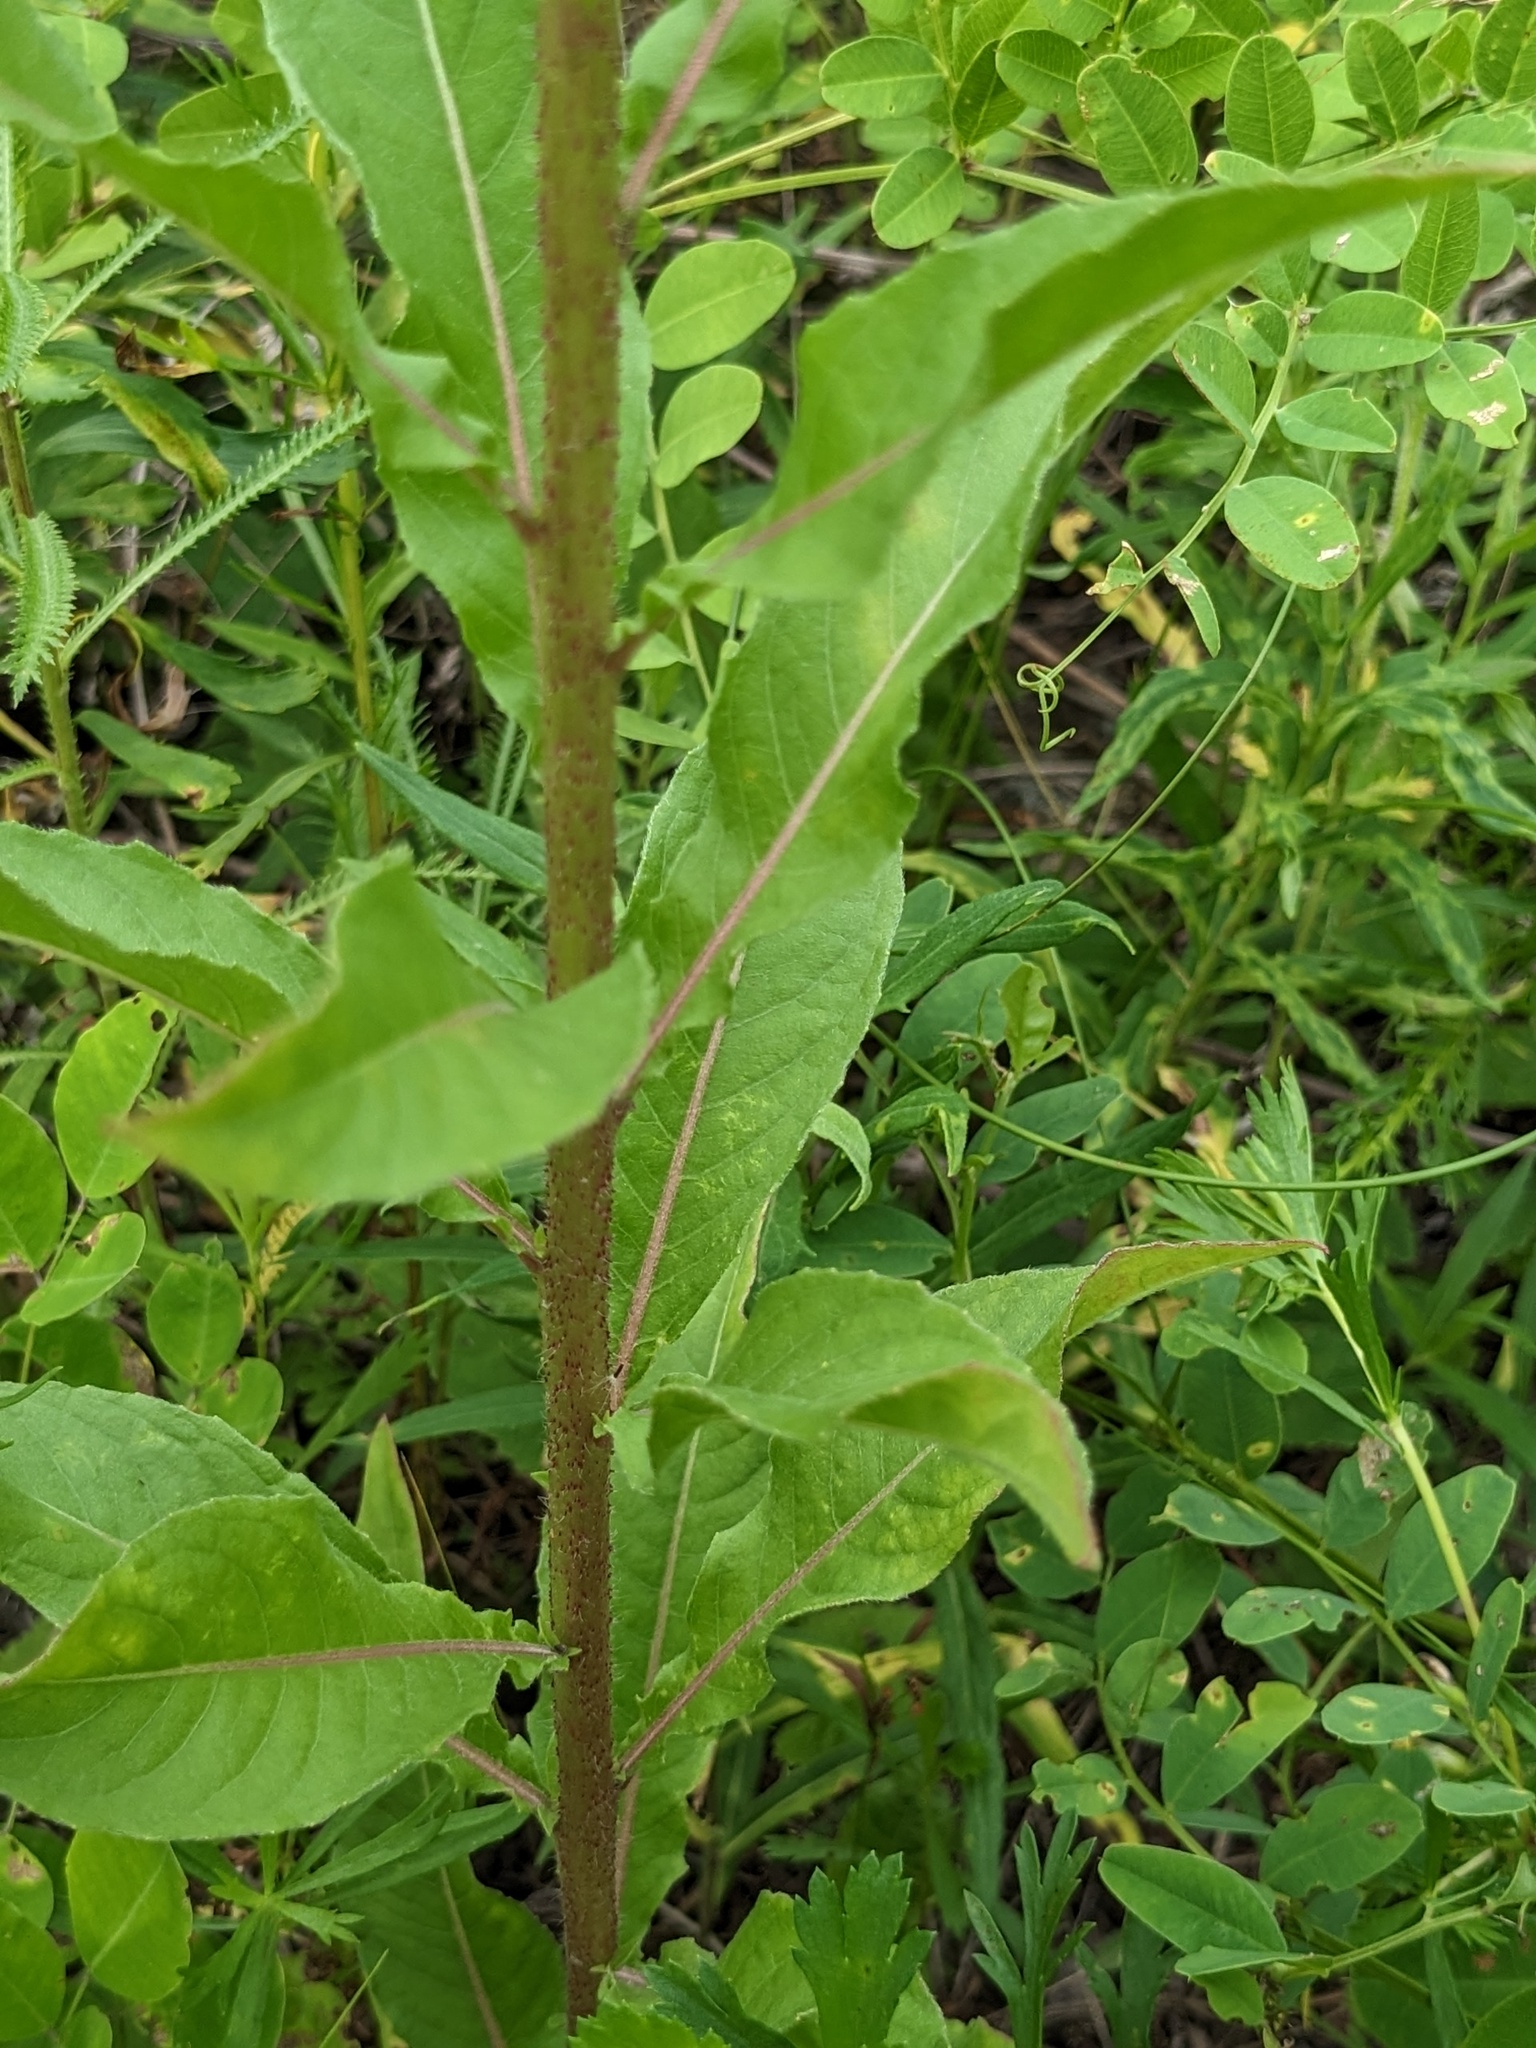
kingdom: Plantae
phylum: Tracheophyta
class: Magnoliopsida
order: Myrtales
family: Onagraceae
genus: Oenothera
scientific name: Oenothera rubricaulis
